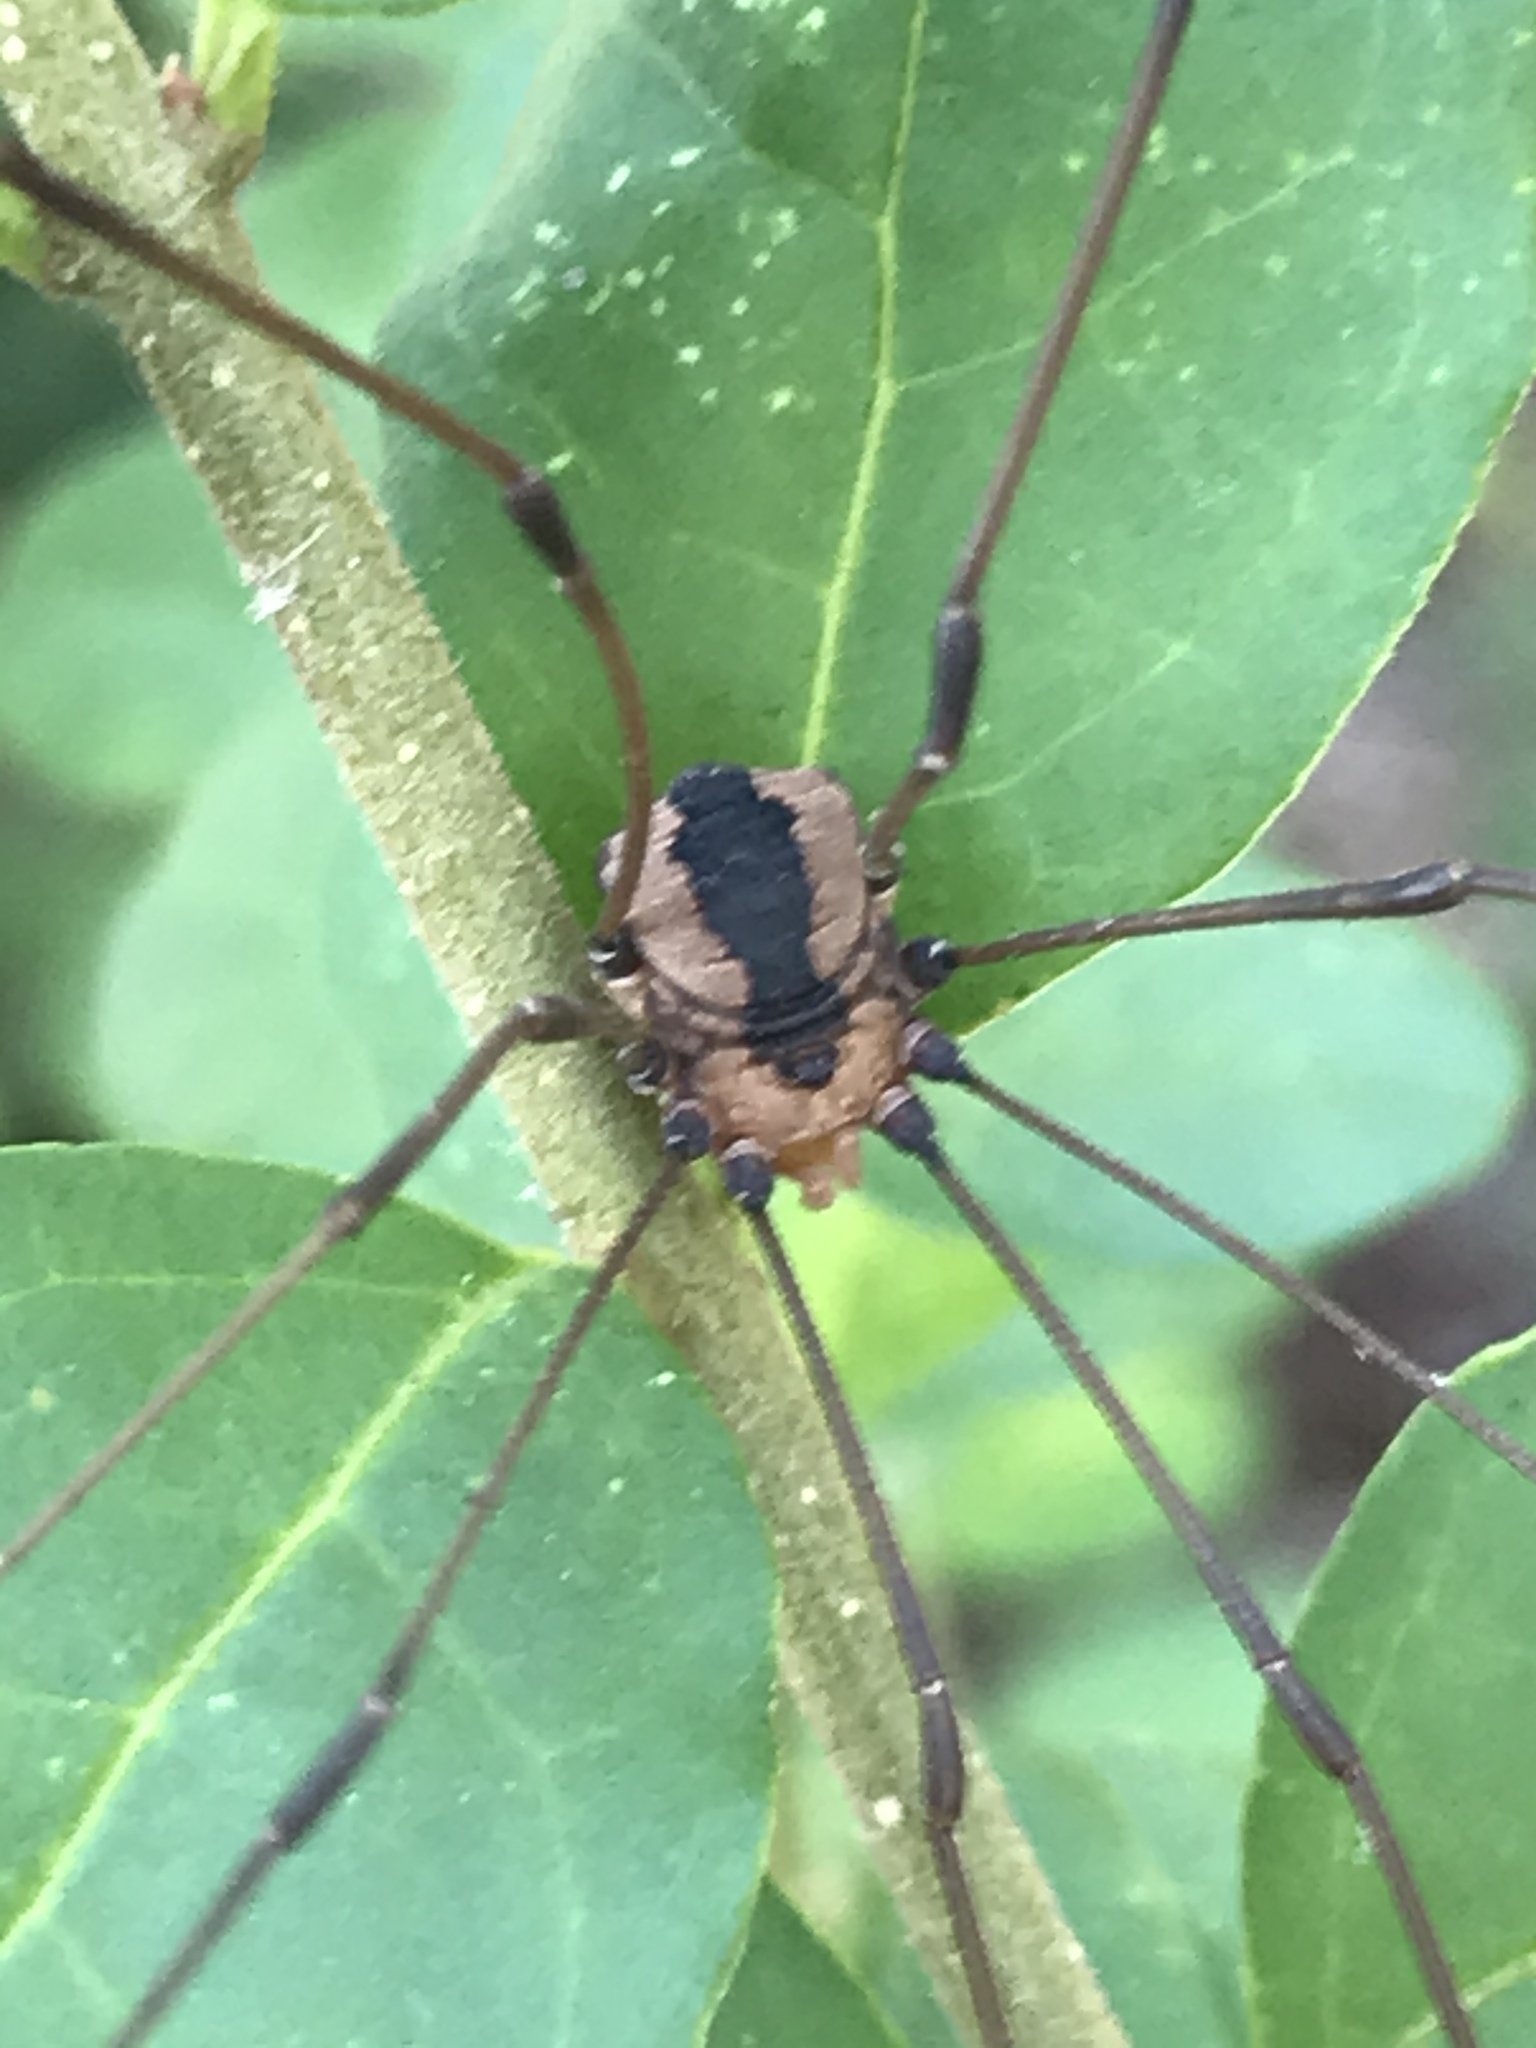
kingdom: Animalia
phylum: Arthropoda
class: Arachnida
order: Opiliones
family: Sclerosomatidae
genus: Leiobunum
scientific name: Leiobunum vittatum
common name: Eastern harvestman
